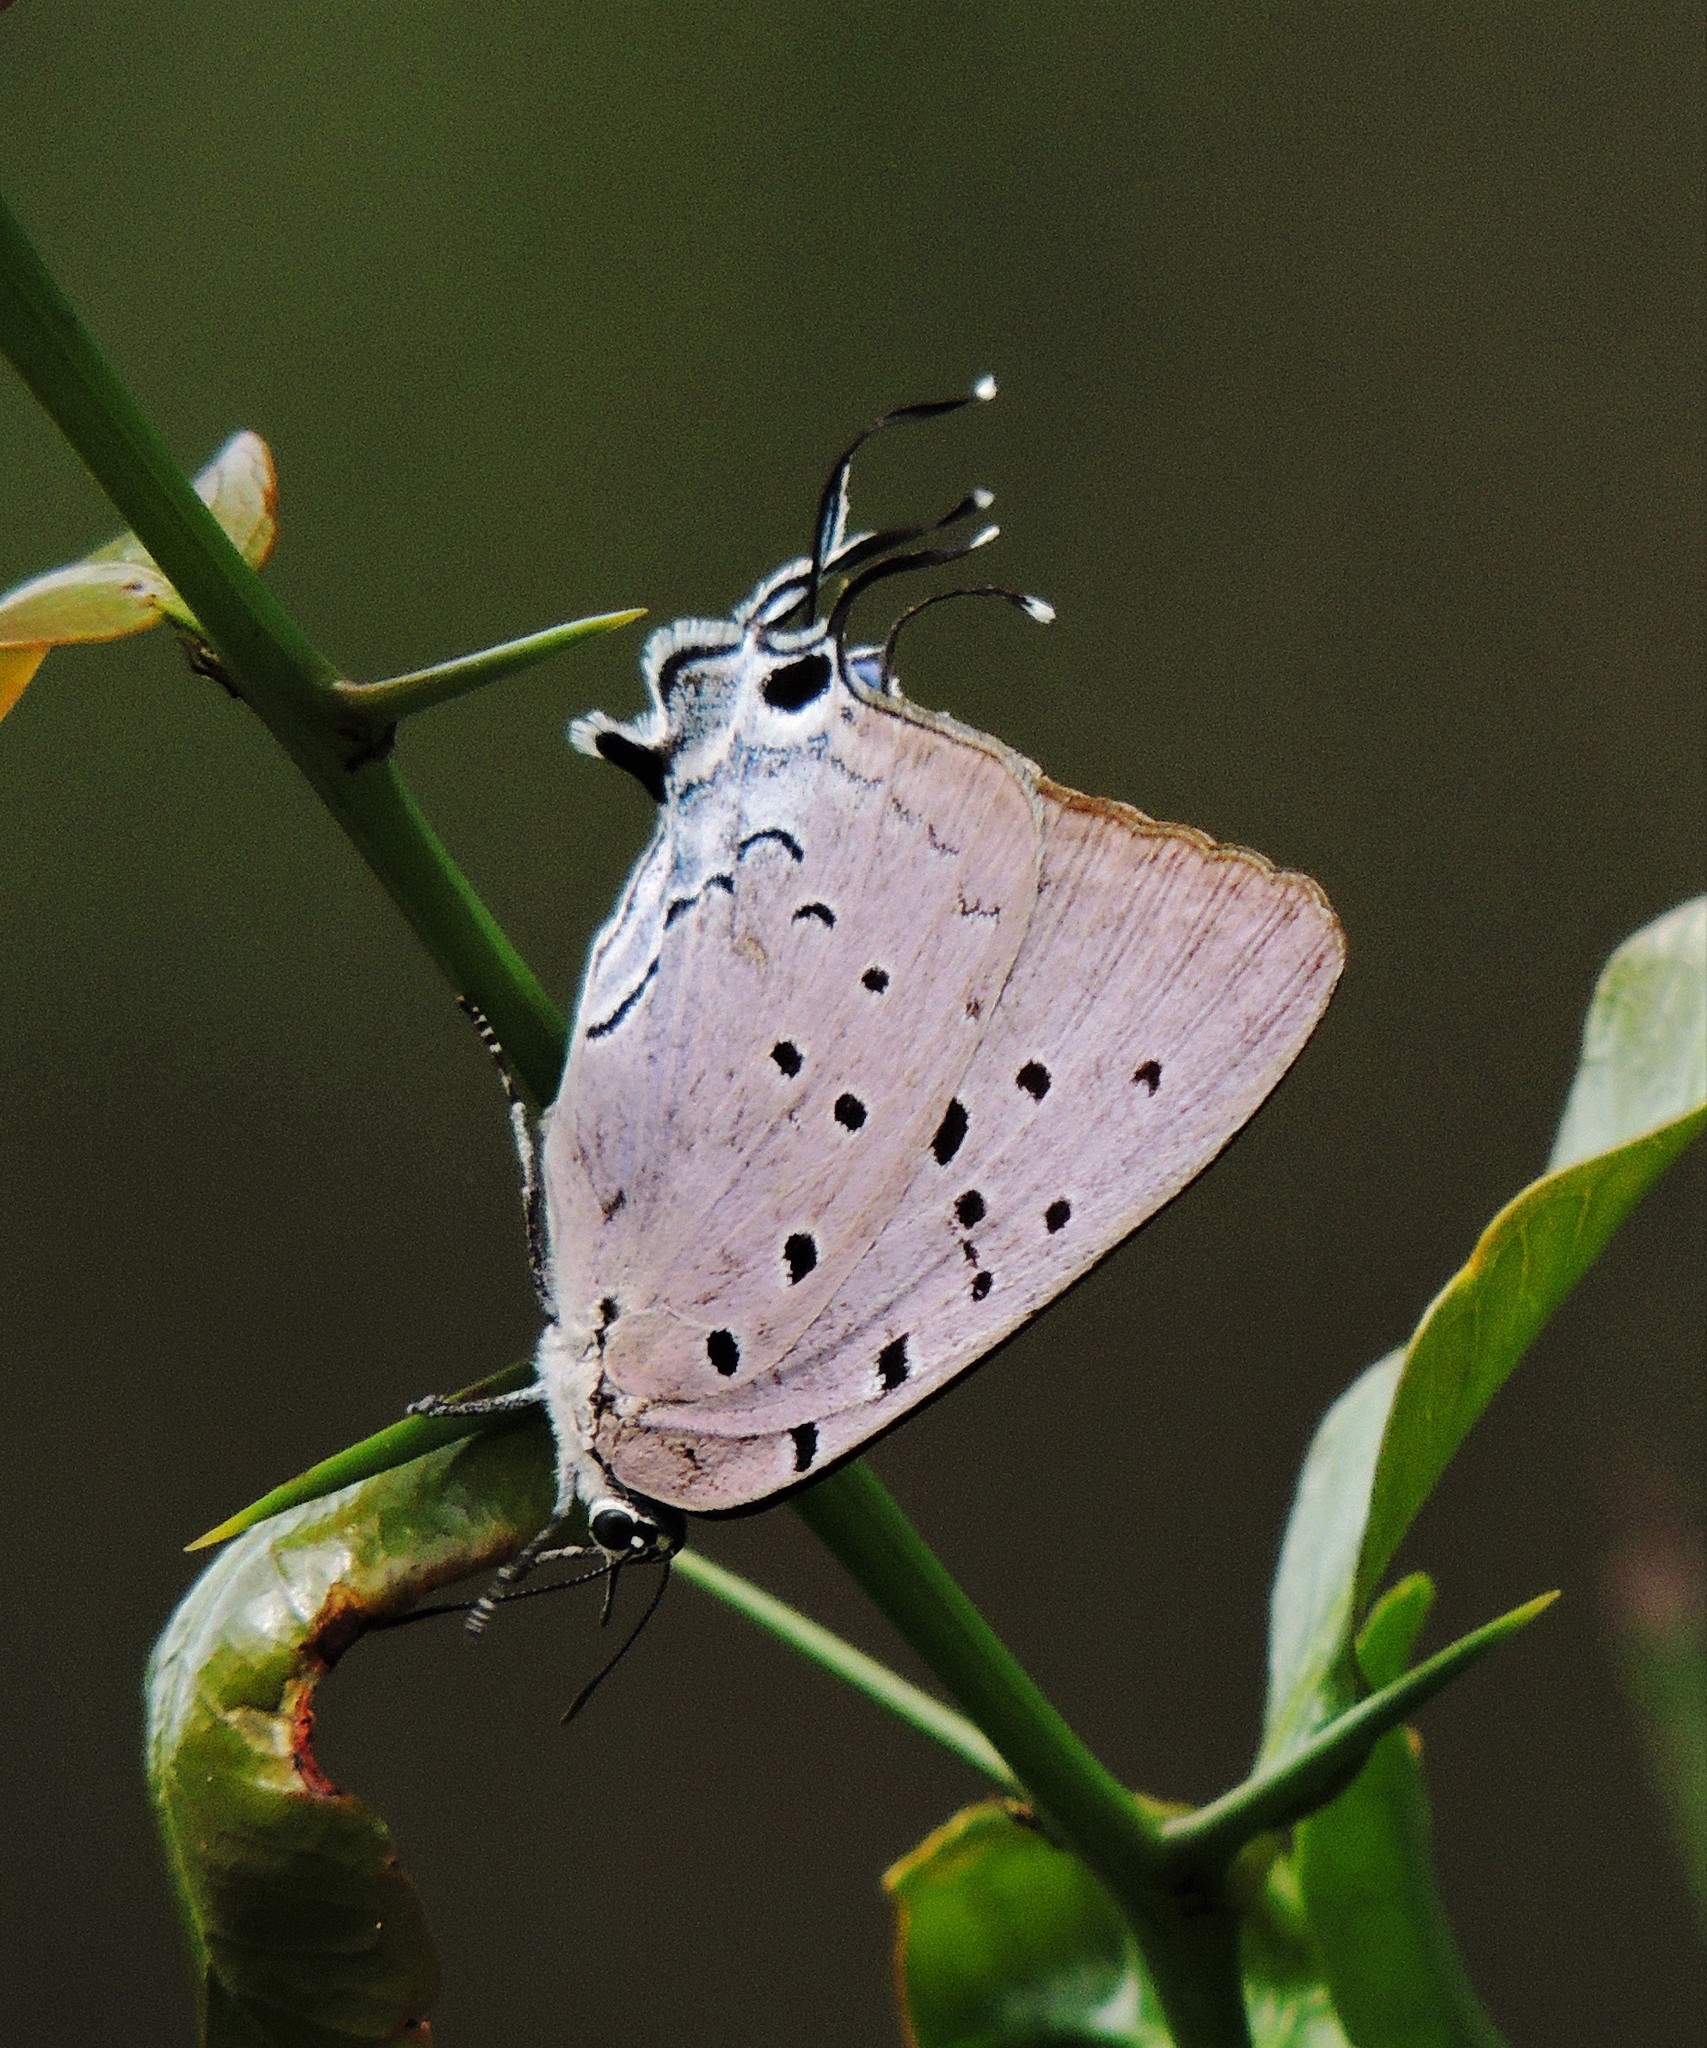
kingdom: Animalia
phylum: Arthropoda
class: Insecta
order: Lepidoptera
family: Lycaenidae
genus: Pseudolycaena
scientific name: Pseudolycaena marsyas
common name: Marsyas hairstreak
